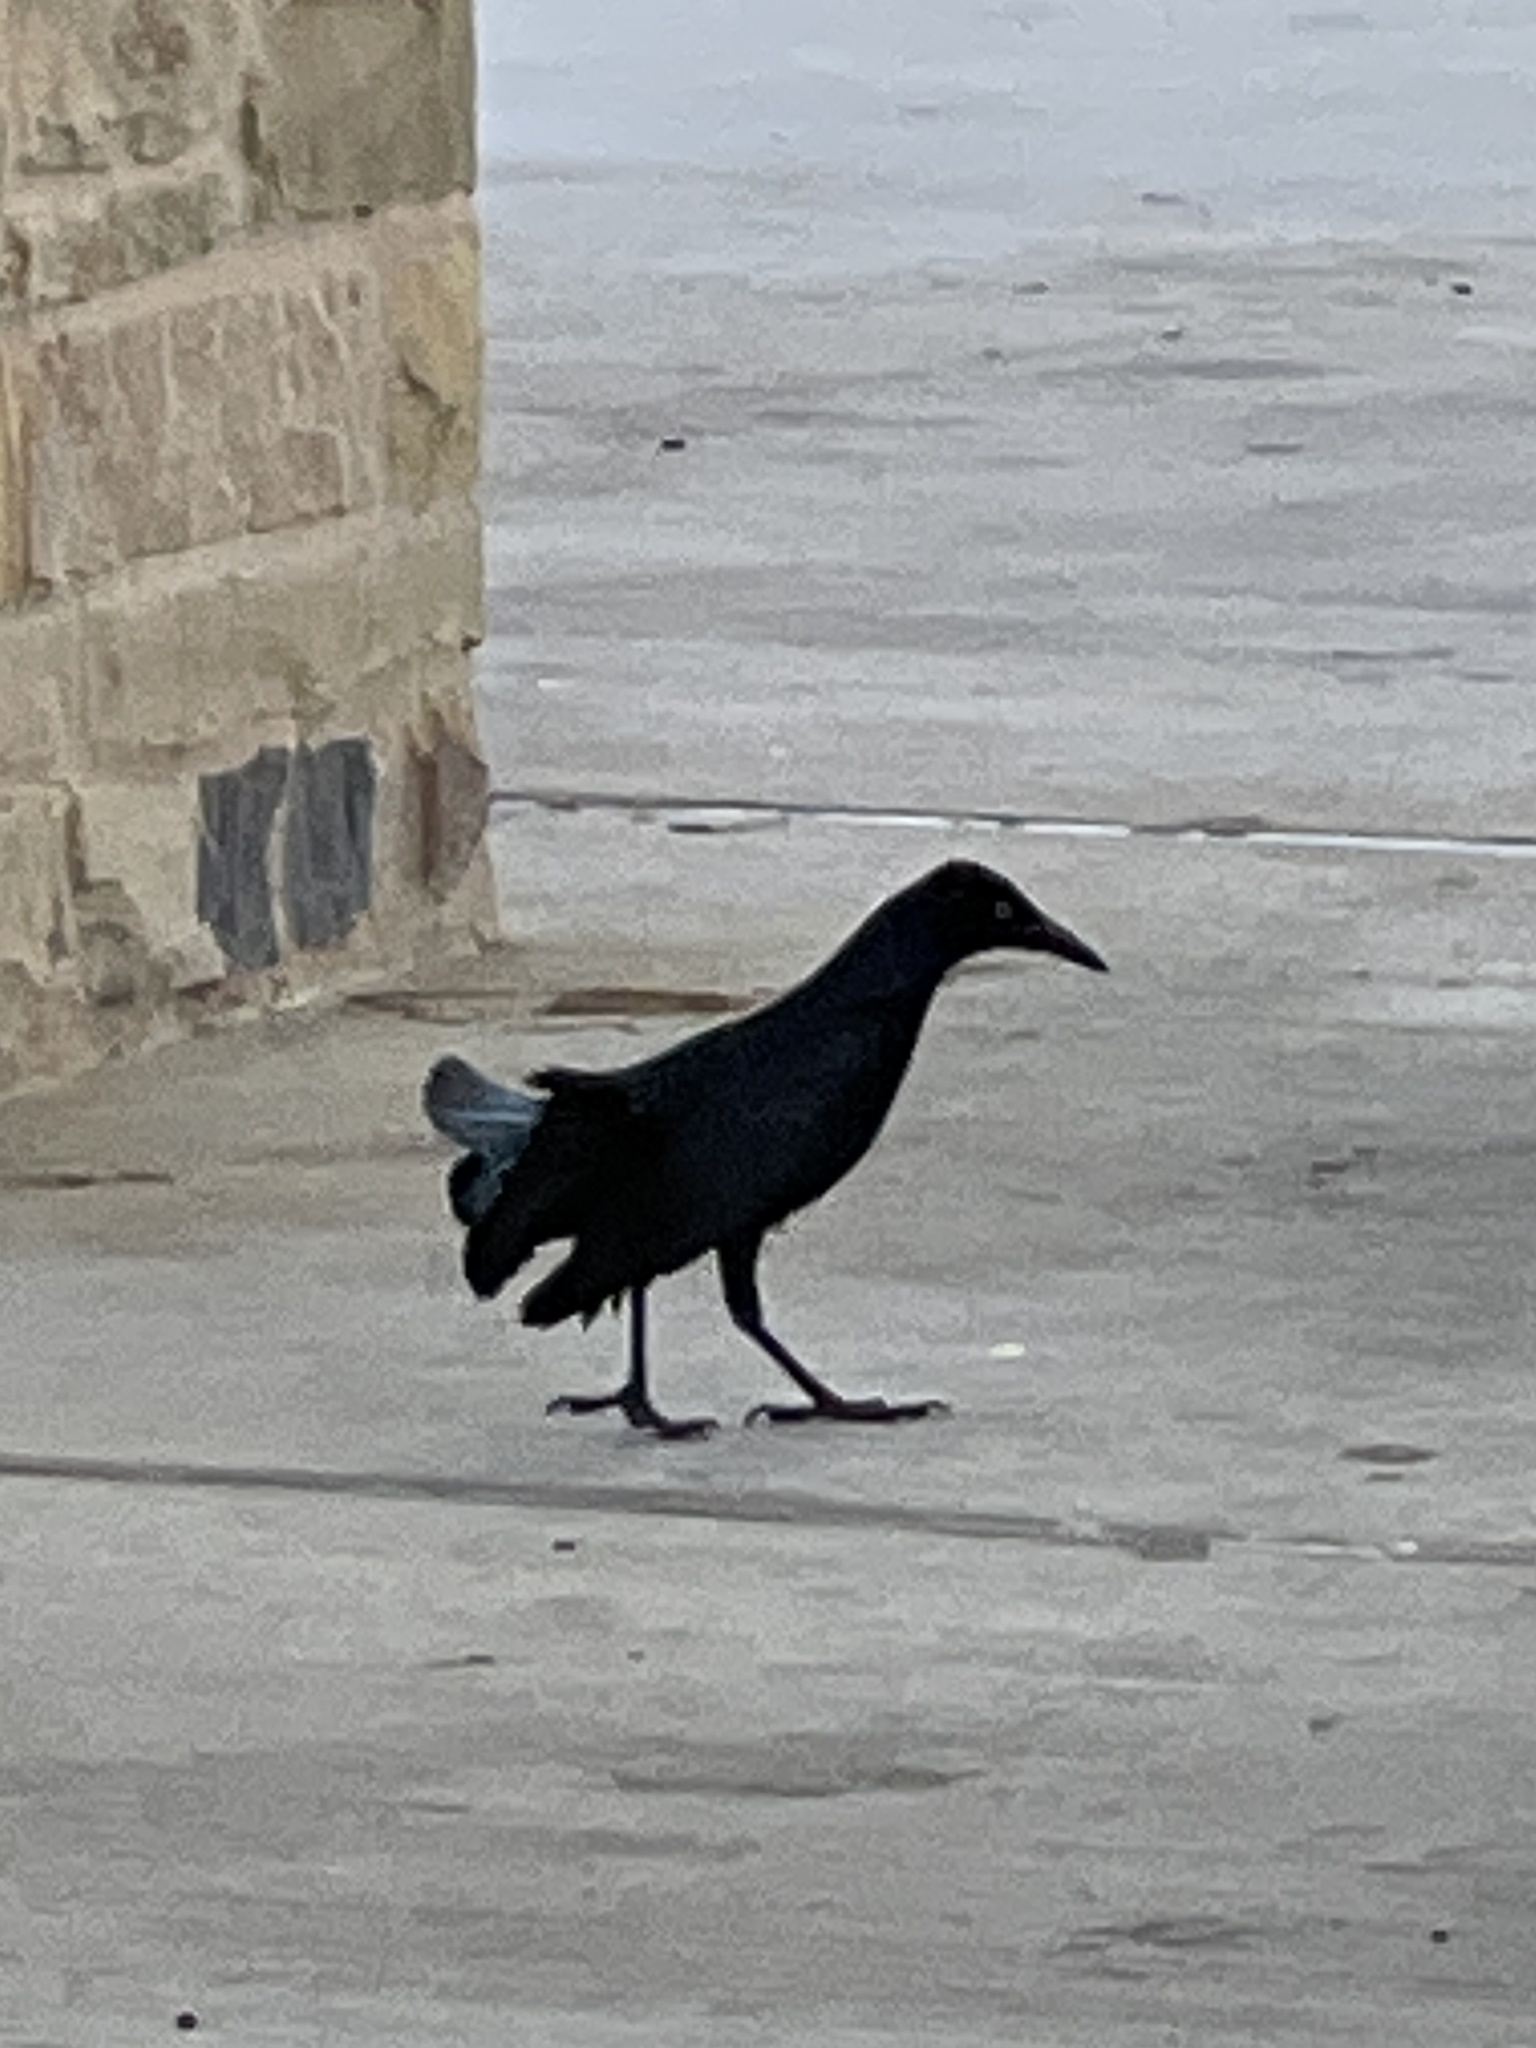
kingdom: Animalia
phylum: Chordata
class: Aves
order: Passeriformes
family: Icteridae
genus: Quiscalus
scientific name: Quiscalus mexicanus
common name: Great-tailed grackle
